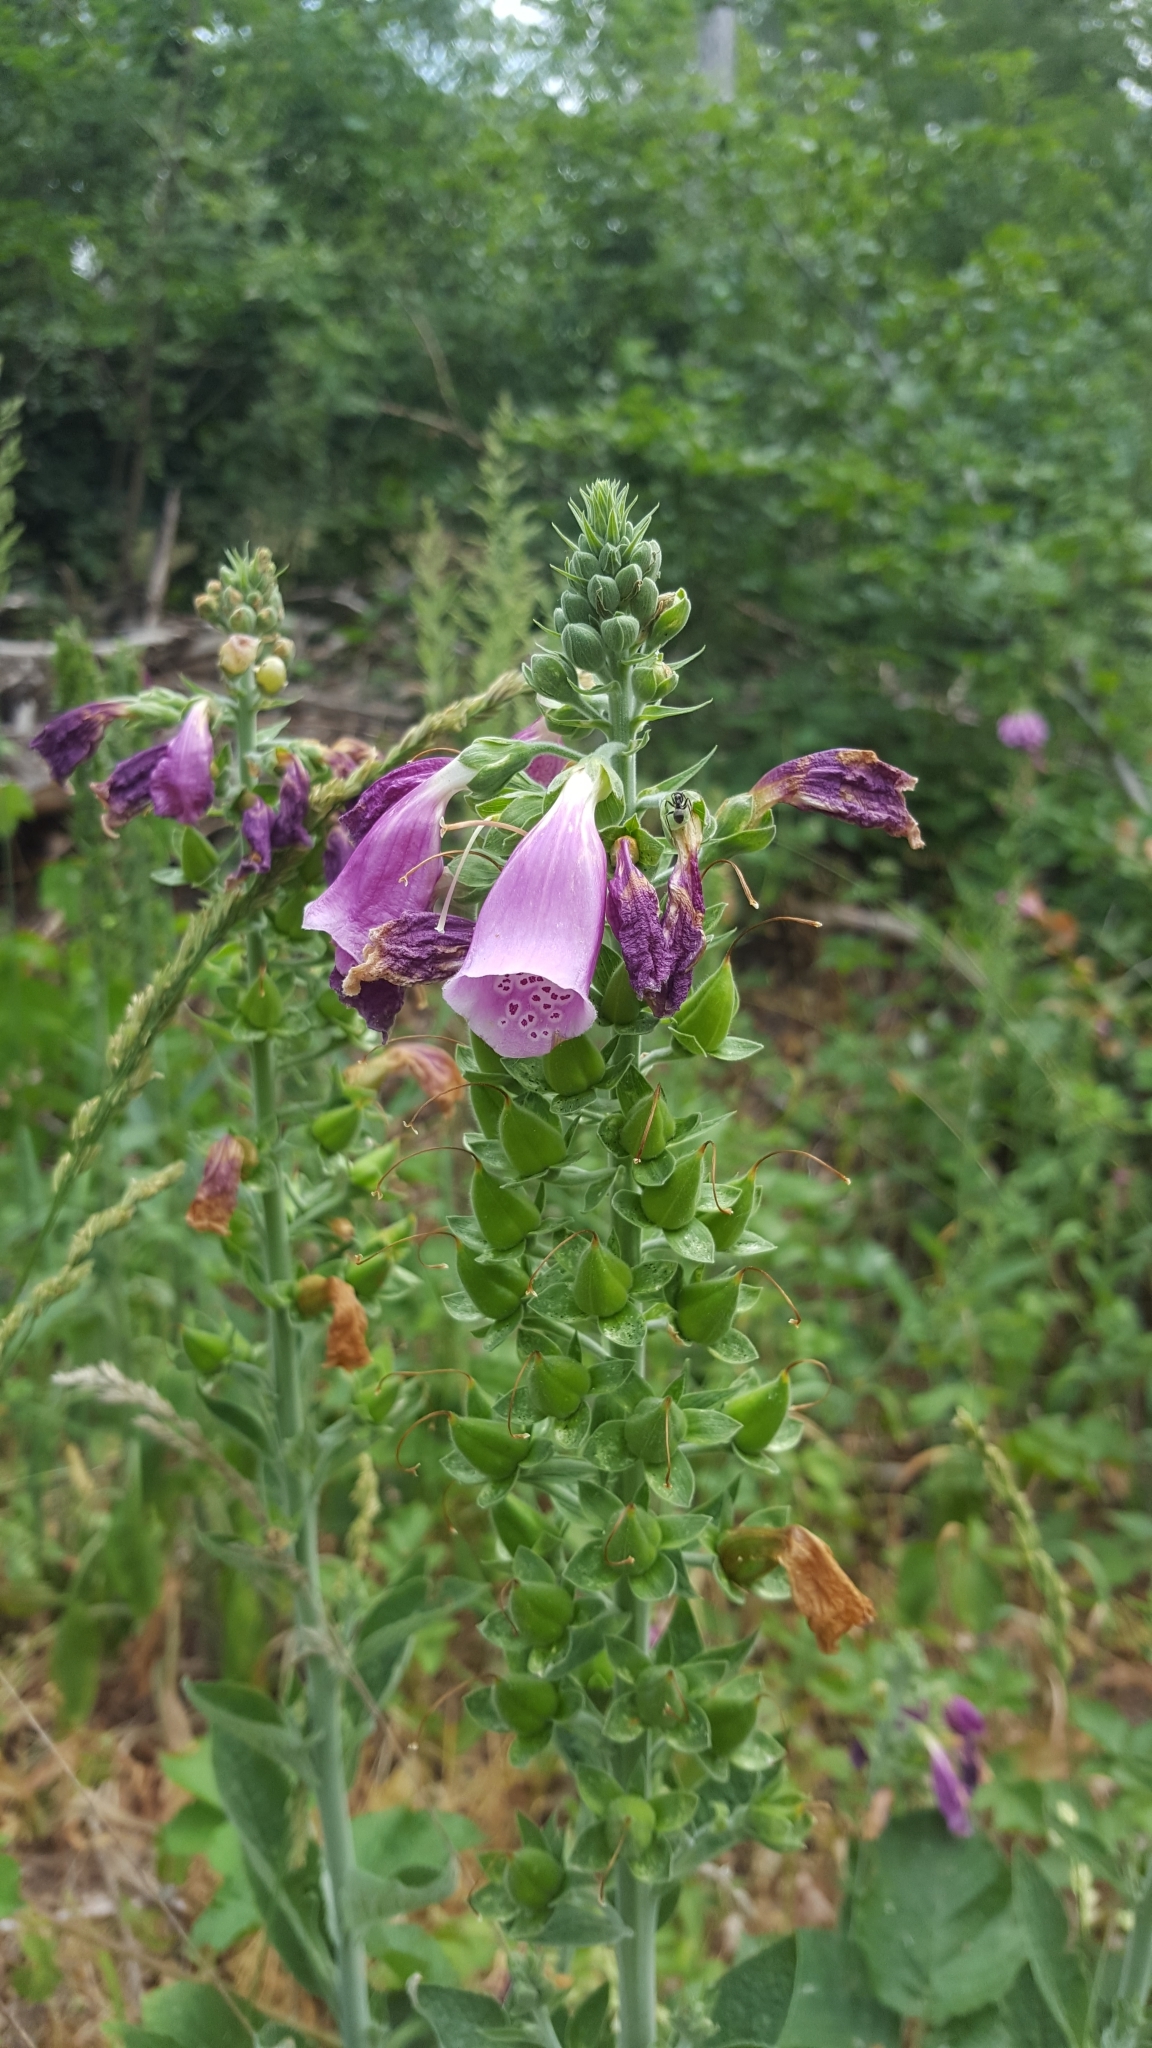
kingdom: Plantae
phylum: Tracheophyta
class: Magnoliopsida
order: Lamiales
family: Plantaginaceae
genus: Digitalis
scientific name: Digitalis purpurea
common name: Foxglove
